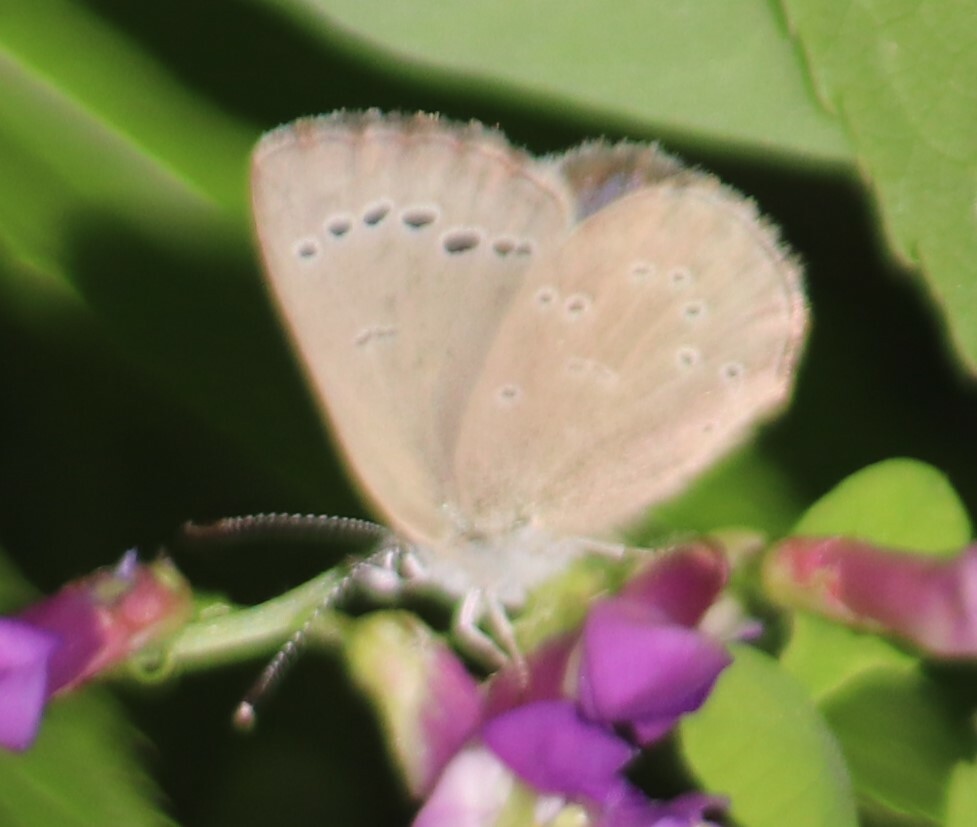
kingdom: Animalia
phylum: Arthropoda
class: Insecta
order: Lepidoptera
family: Lycaenidae
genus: Glaucopsyche
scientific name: Glaucopsyche lygdamus
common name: Silvery blue
